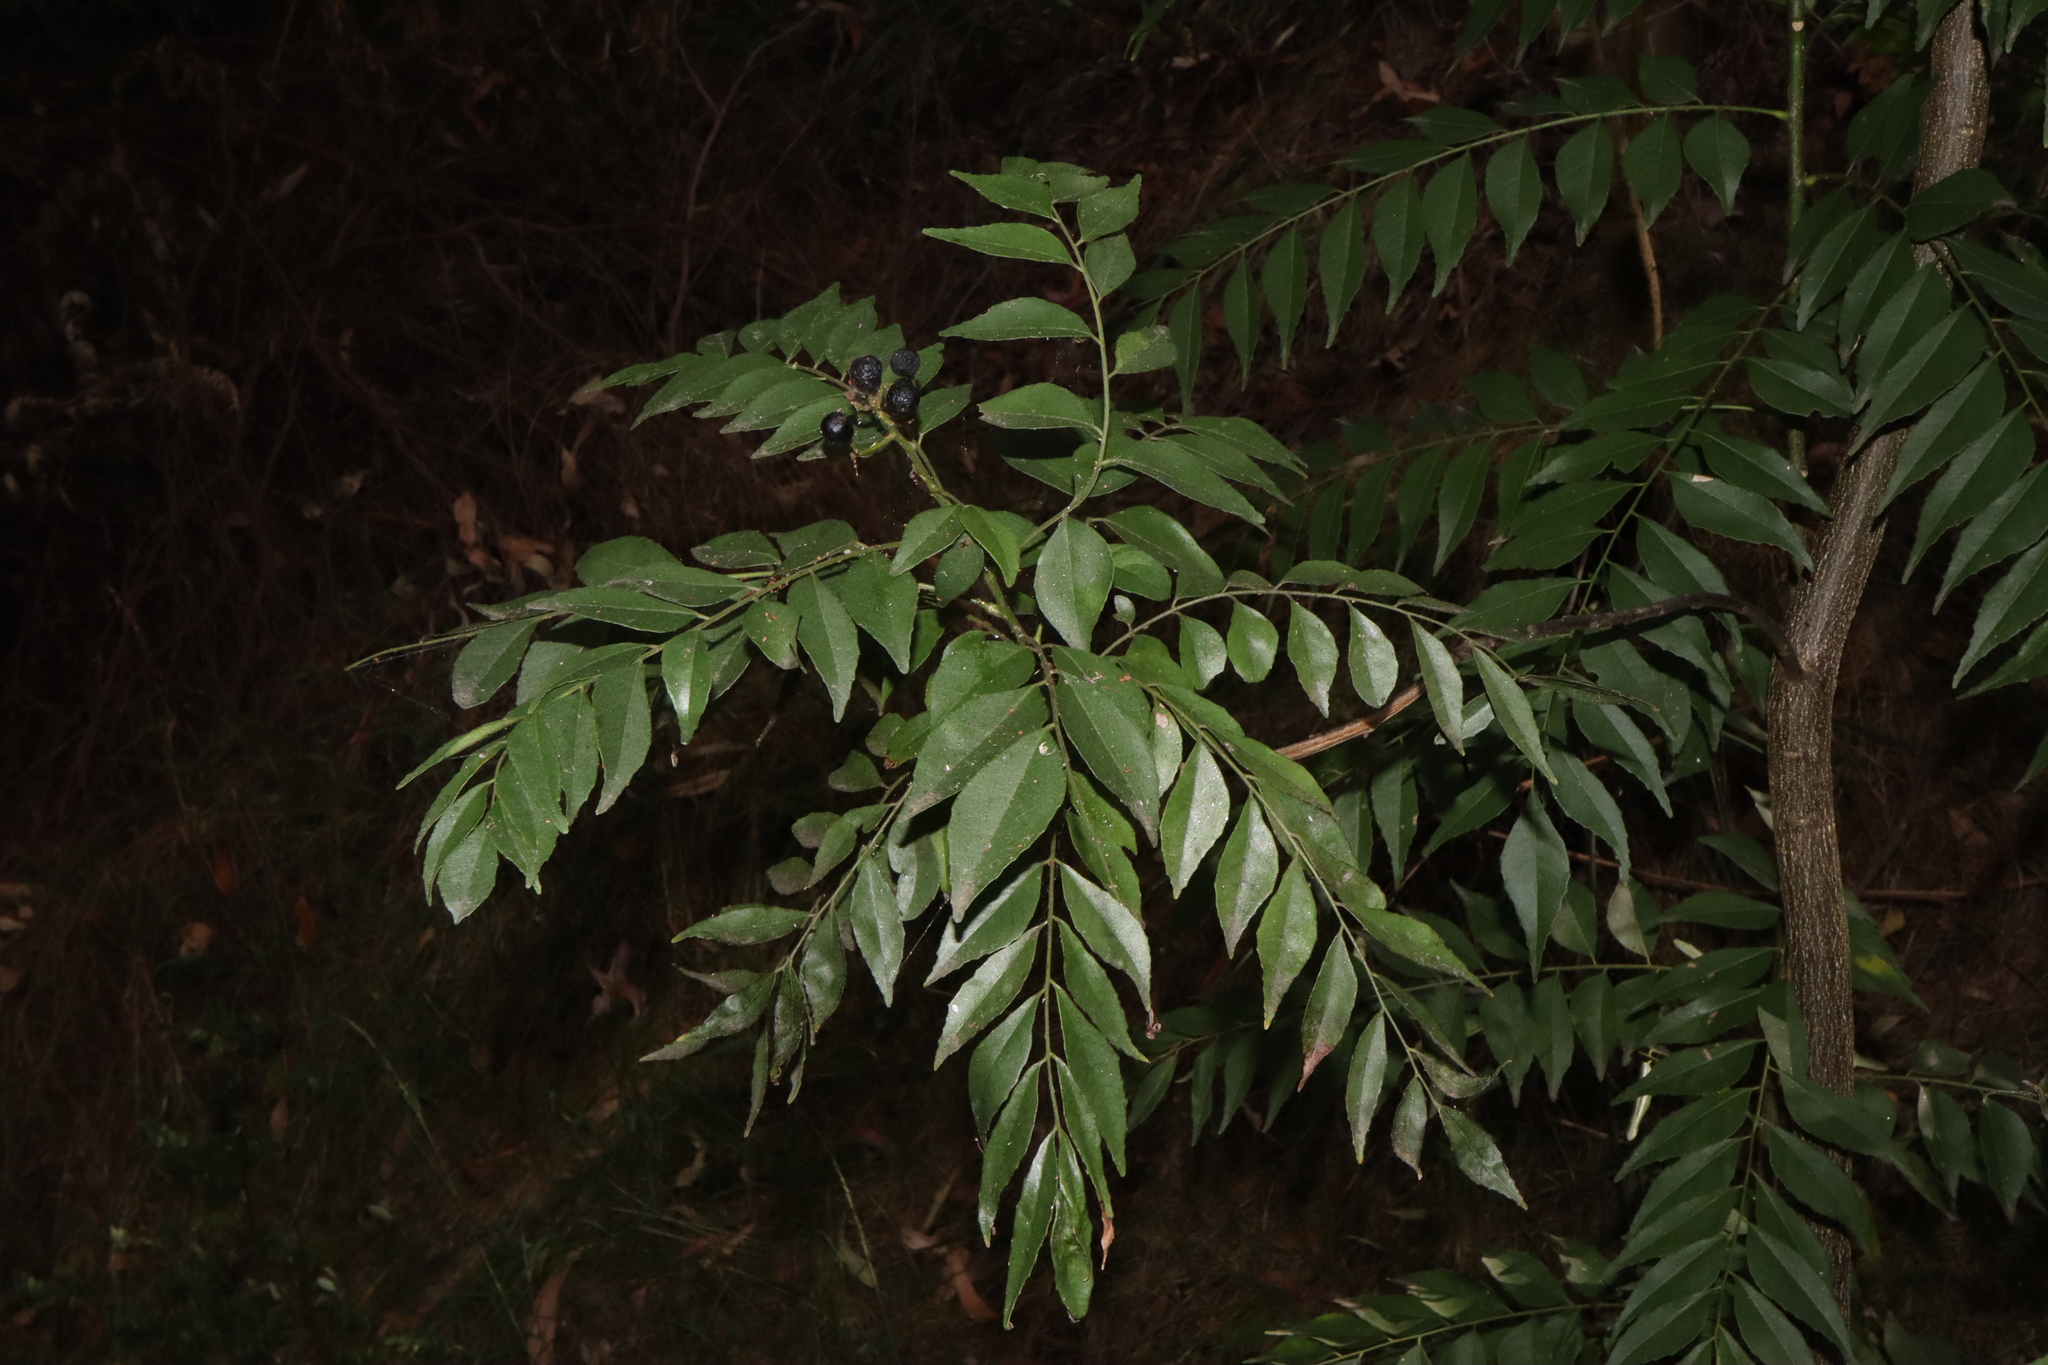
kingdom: Plantae
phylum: Tracheophyta
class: Magnoliopsida
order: Sapindales
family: Rutaceae
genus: Murraya
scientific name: Murraya koenigii
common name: Curry-plant
